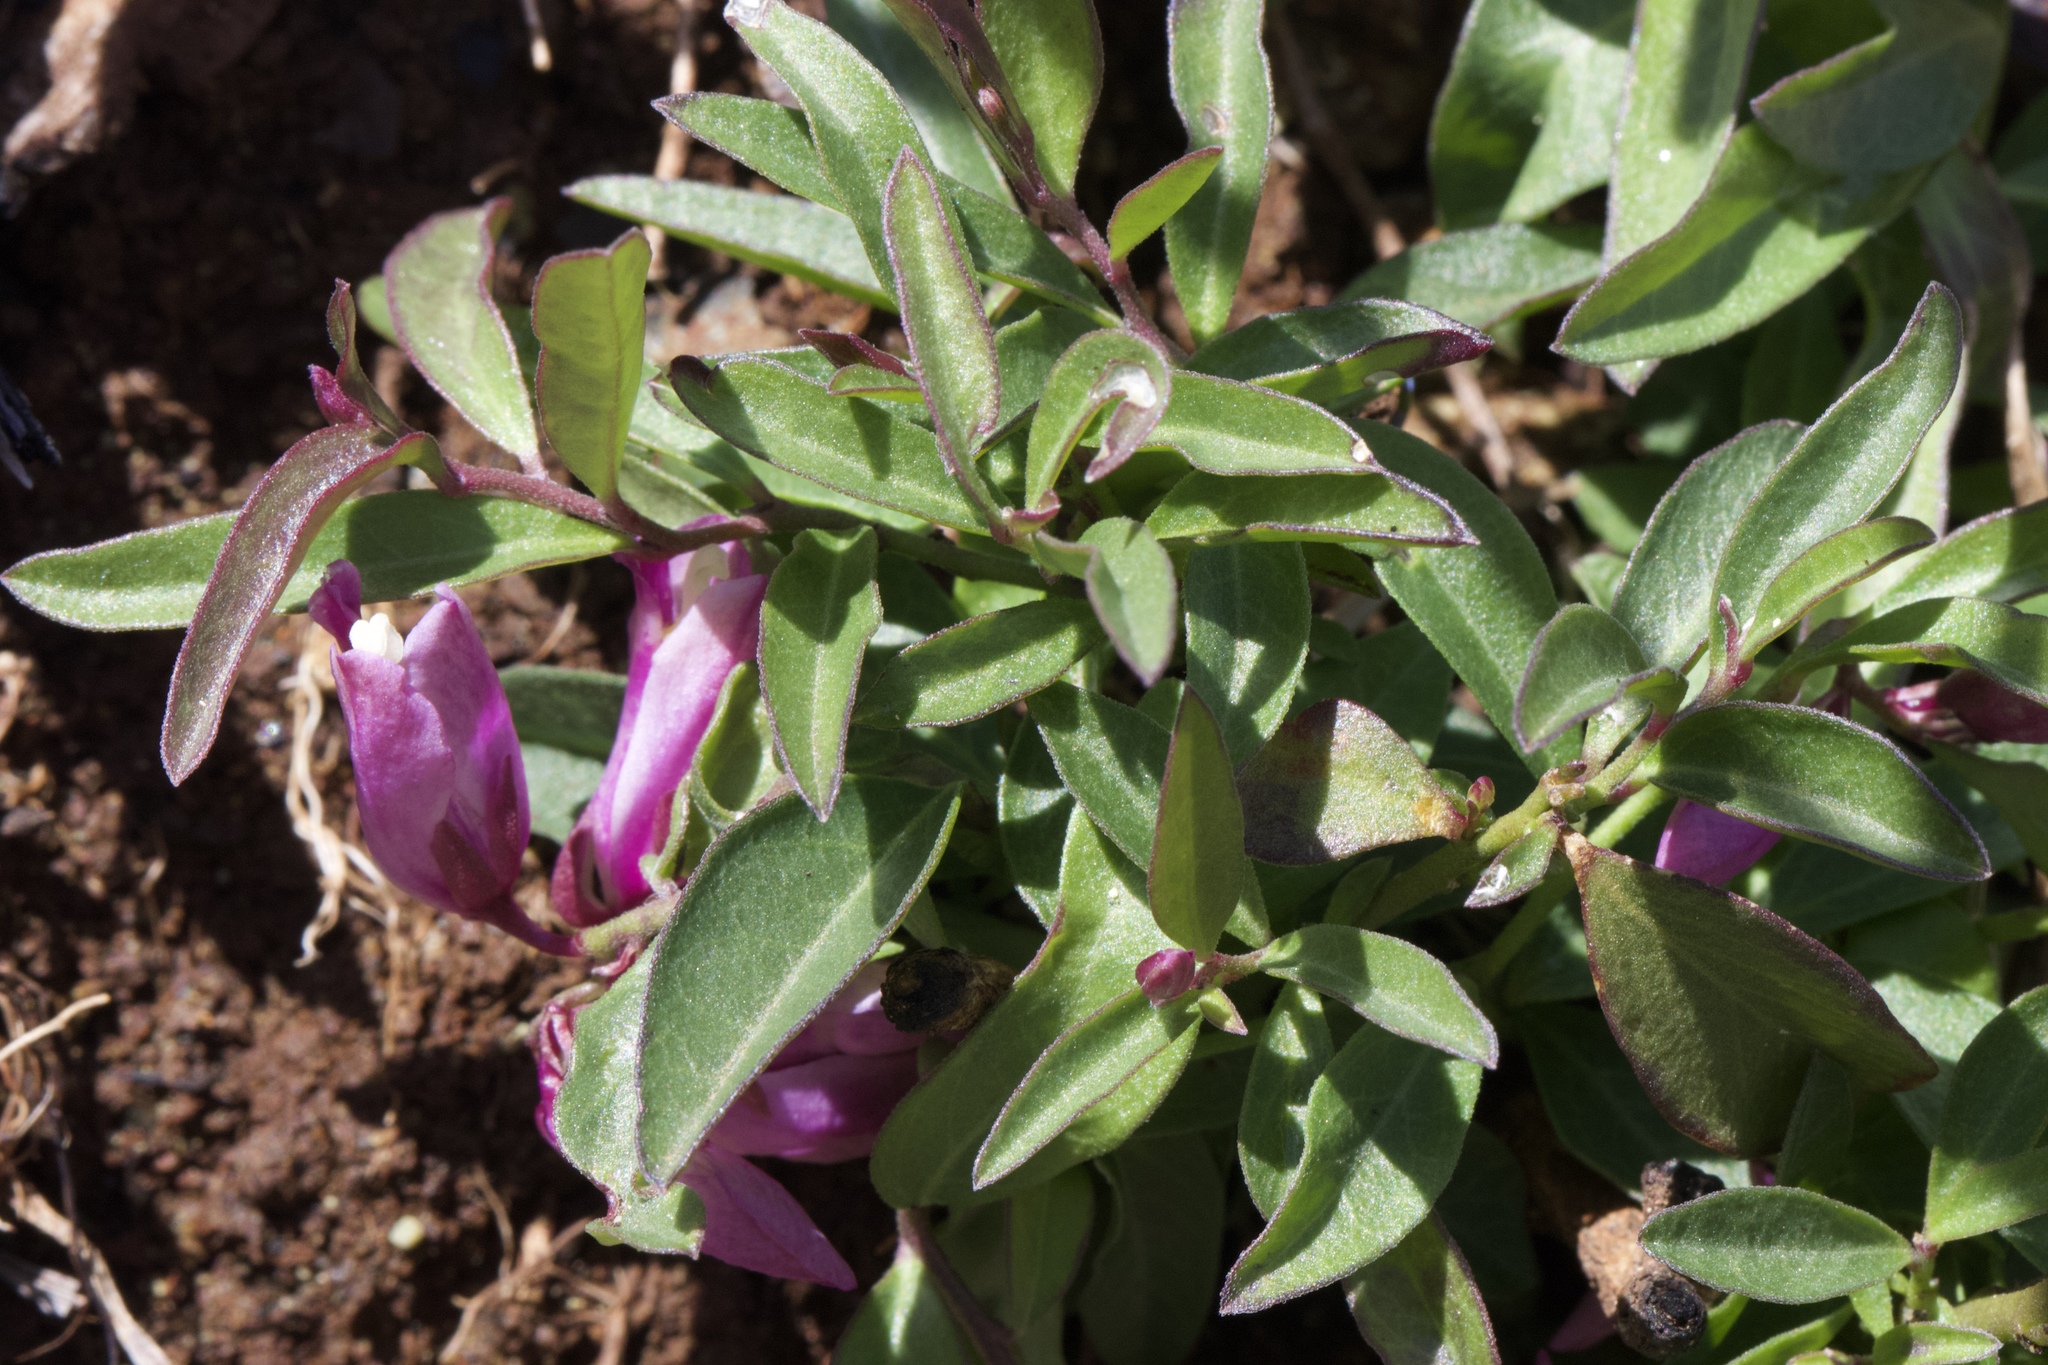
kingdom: Plantae
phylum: Tracheophyta
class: Magnoliopsida
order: Fabales
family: Polygalaceae
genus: Rhinotropis
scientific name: Rhinotropis californica
